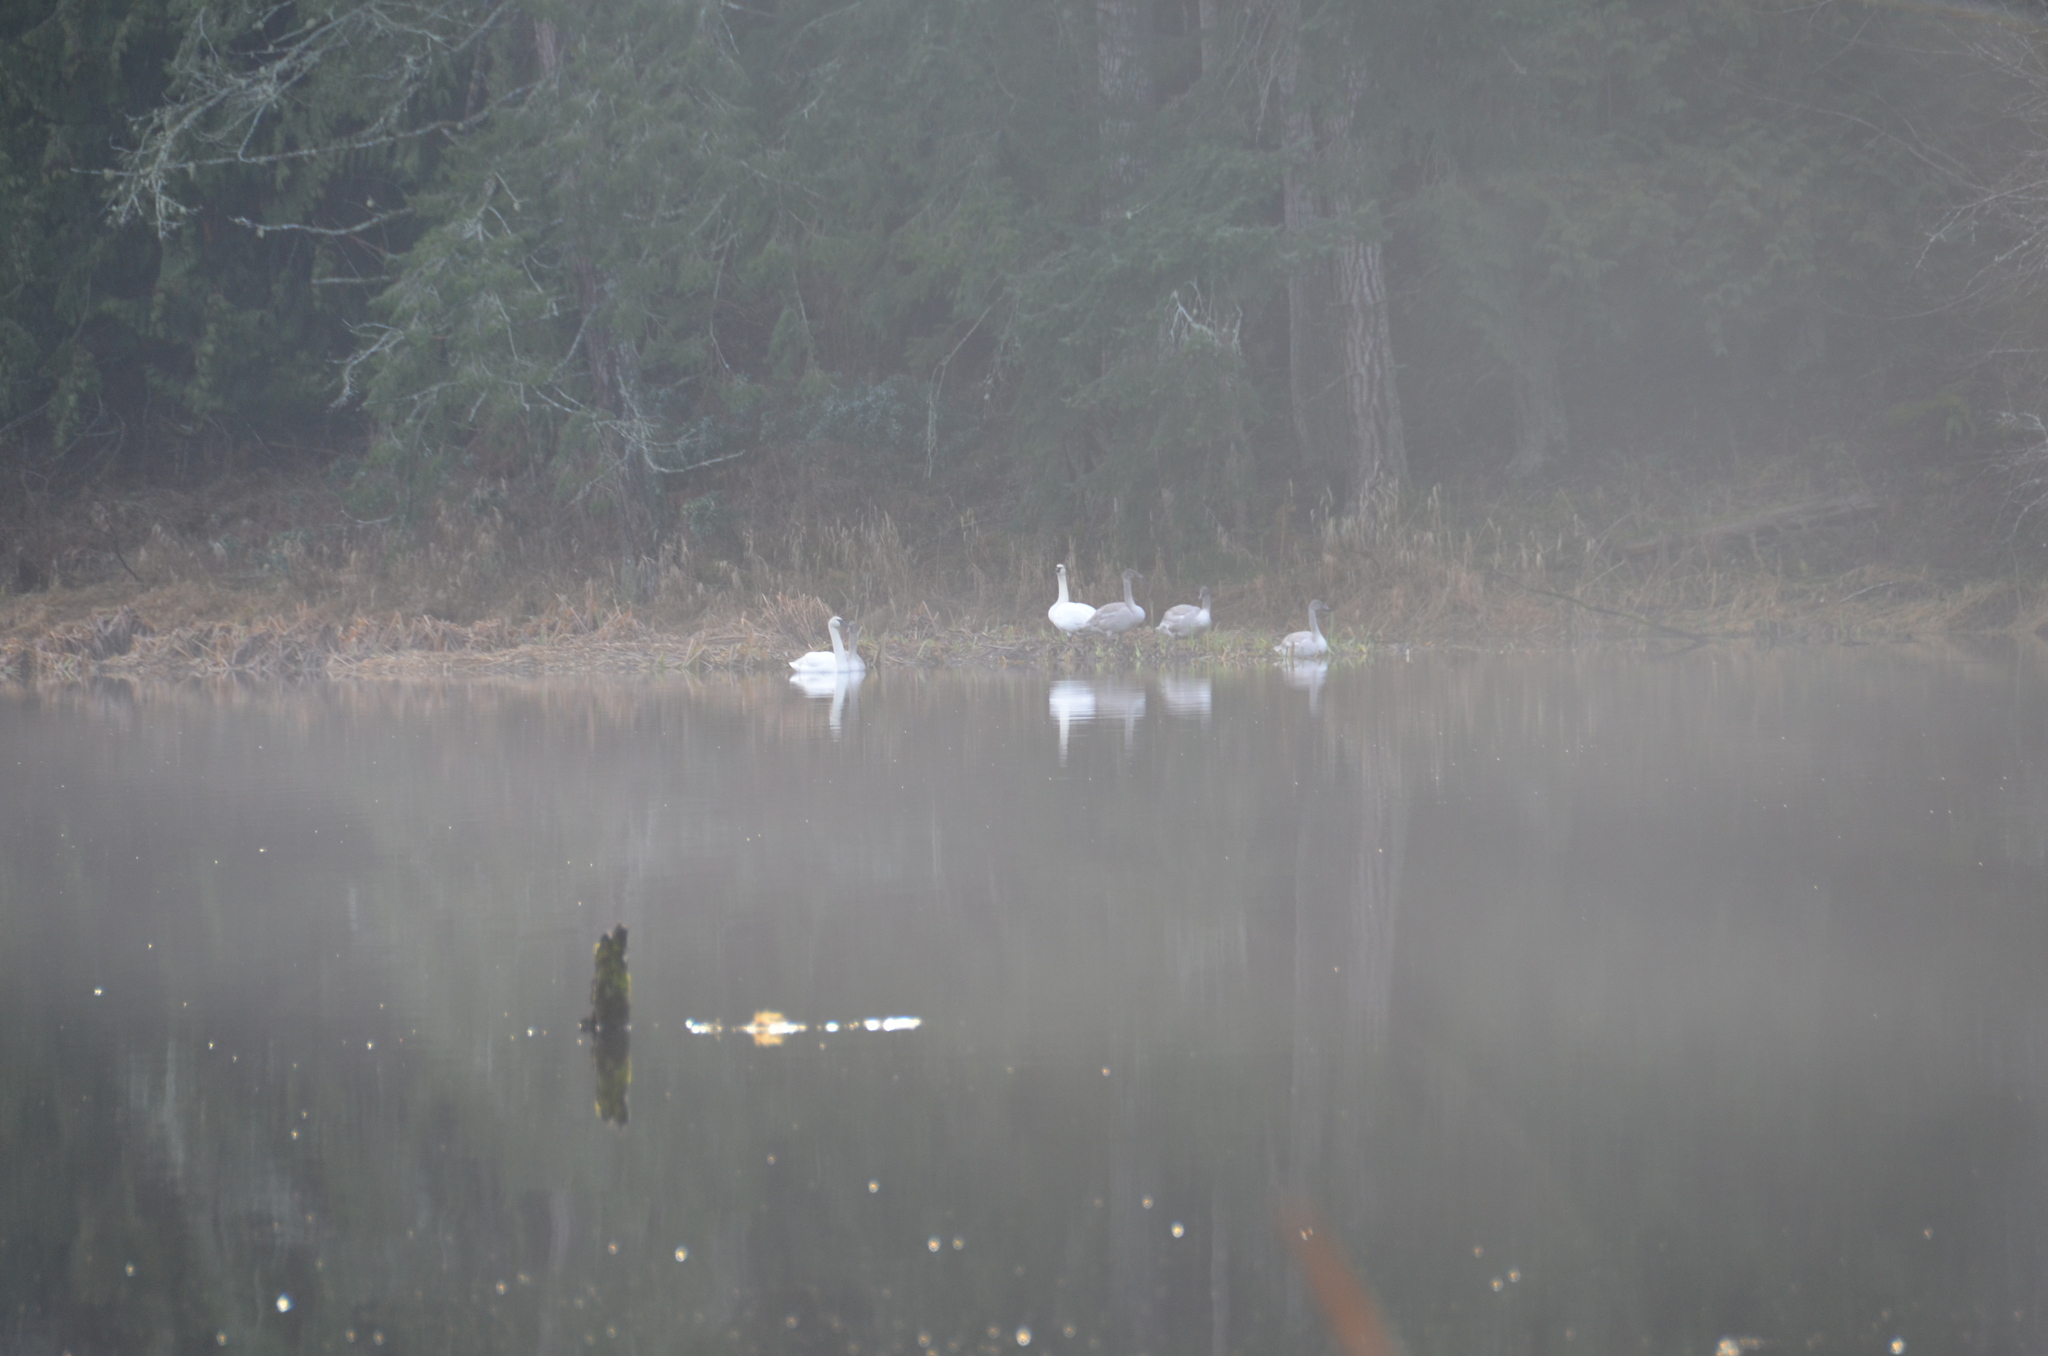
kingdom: Animalia
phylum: Chordata
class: Aves
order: Anseriformes
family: Anatidae
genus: Cygnus
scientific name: Cygnus buccinator
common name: Trumpeter swan
